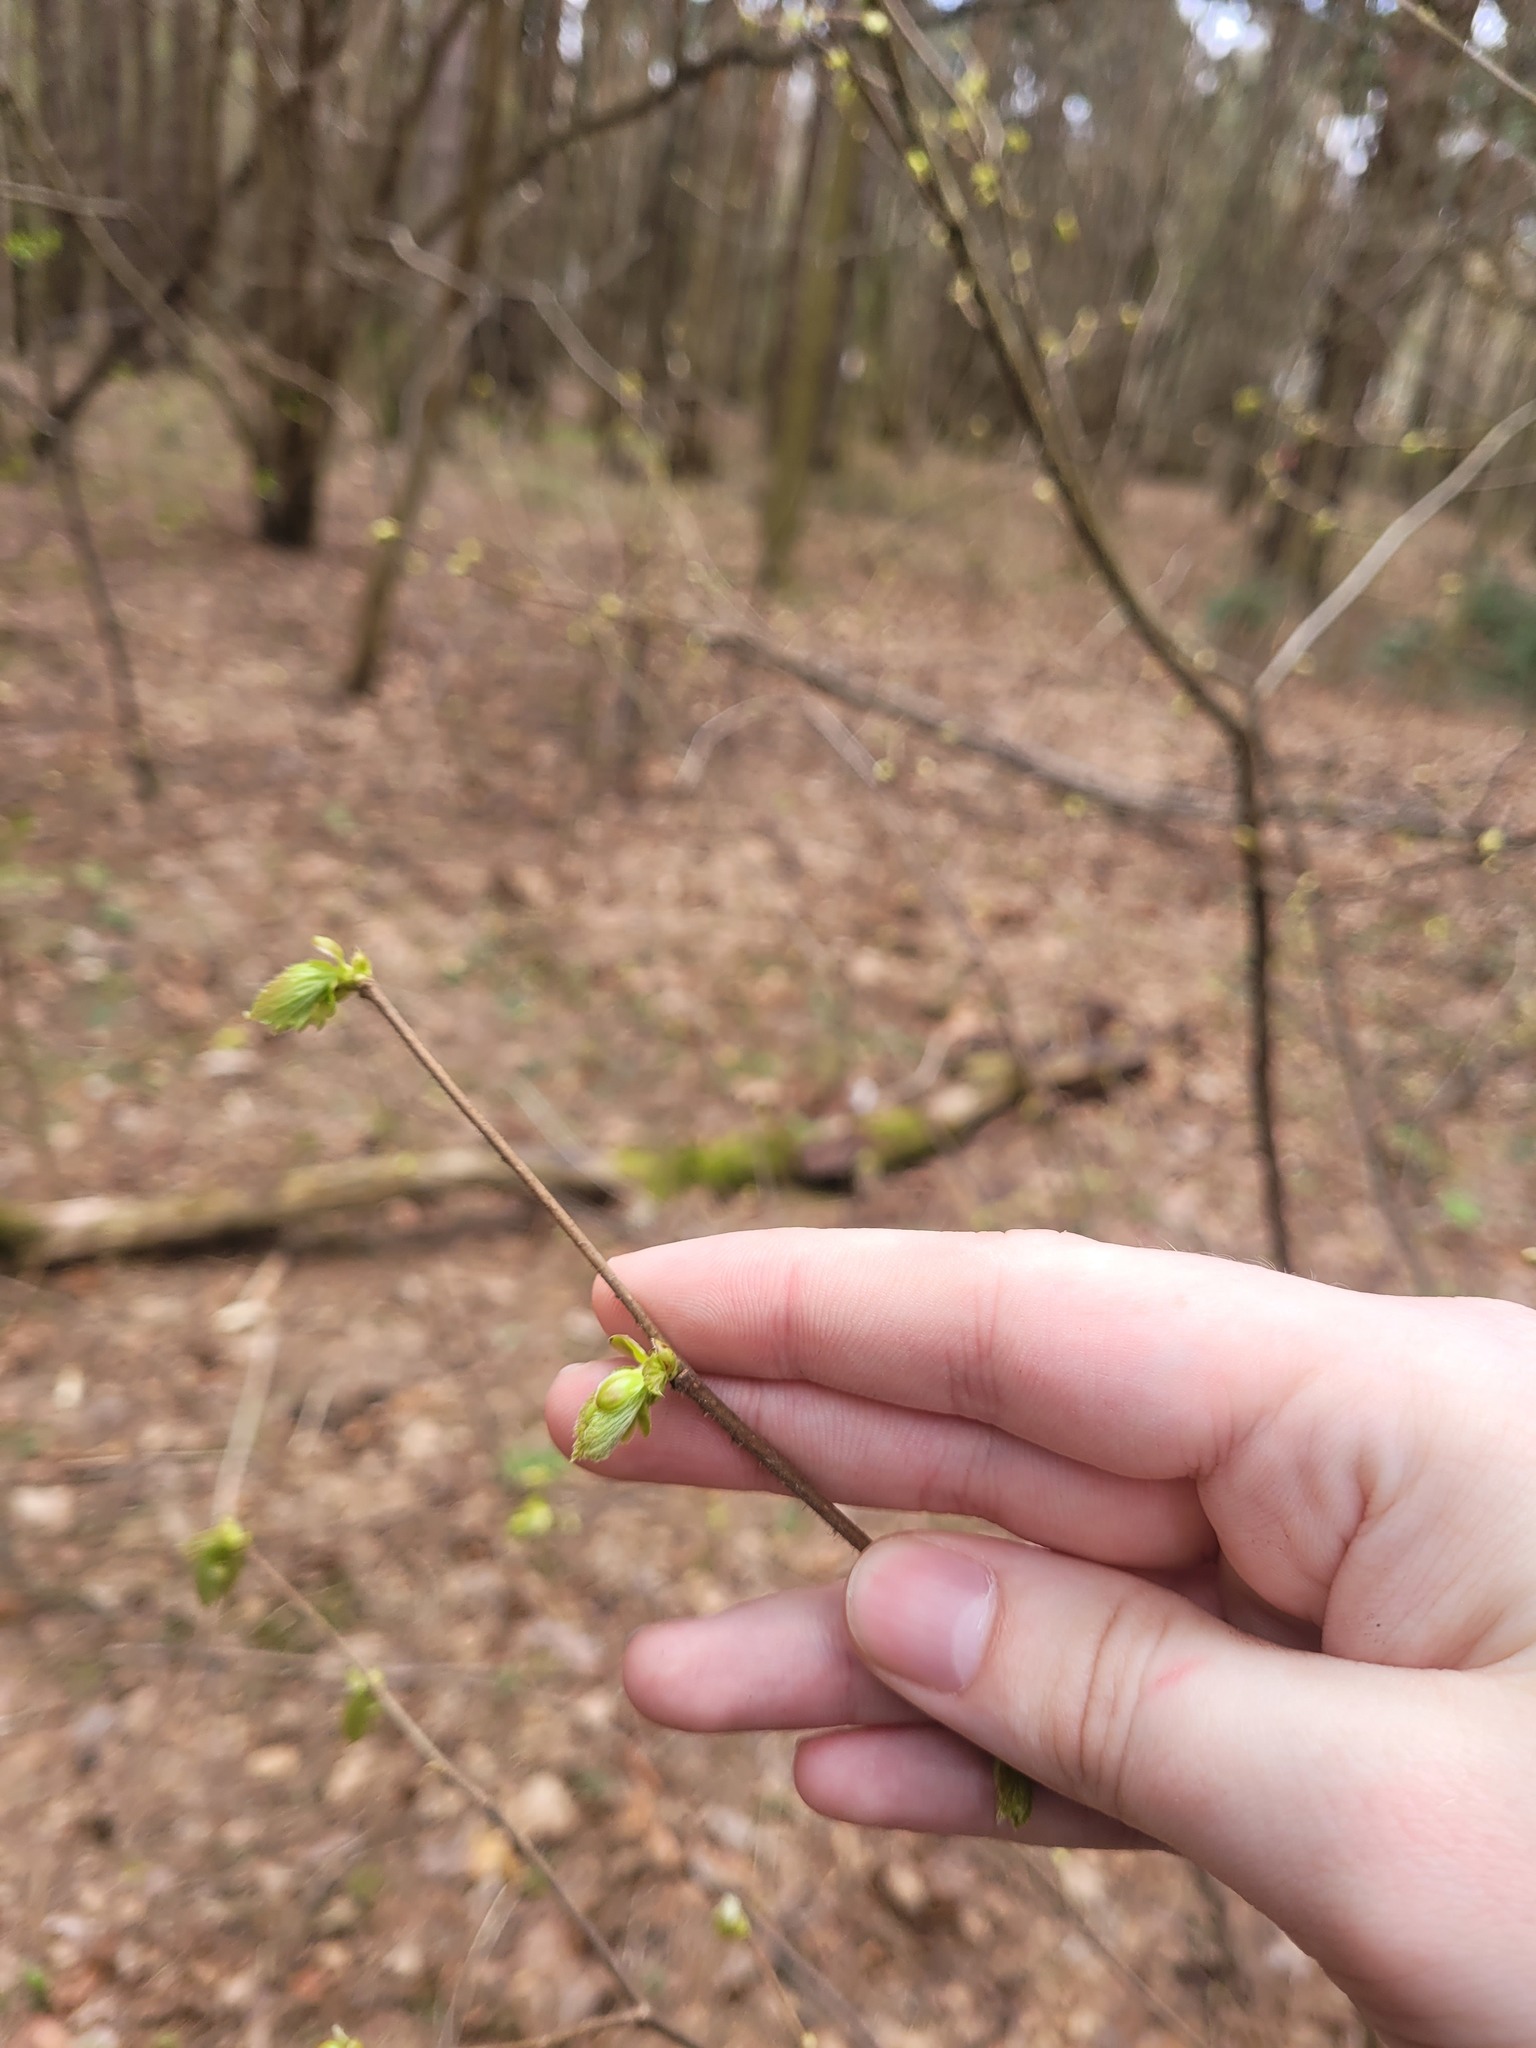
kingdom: Plantae
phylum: Tracheophyta
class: Magnoliopsida
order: Fagales
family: Betulaceae
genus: Corylus
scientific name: Corylus avellana
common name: European hazel
